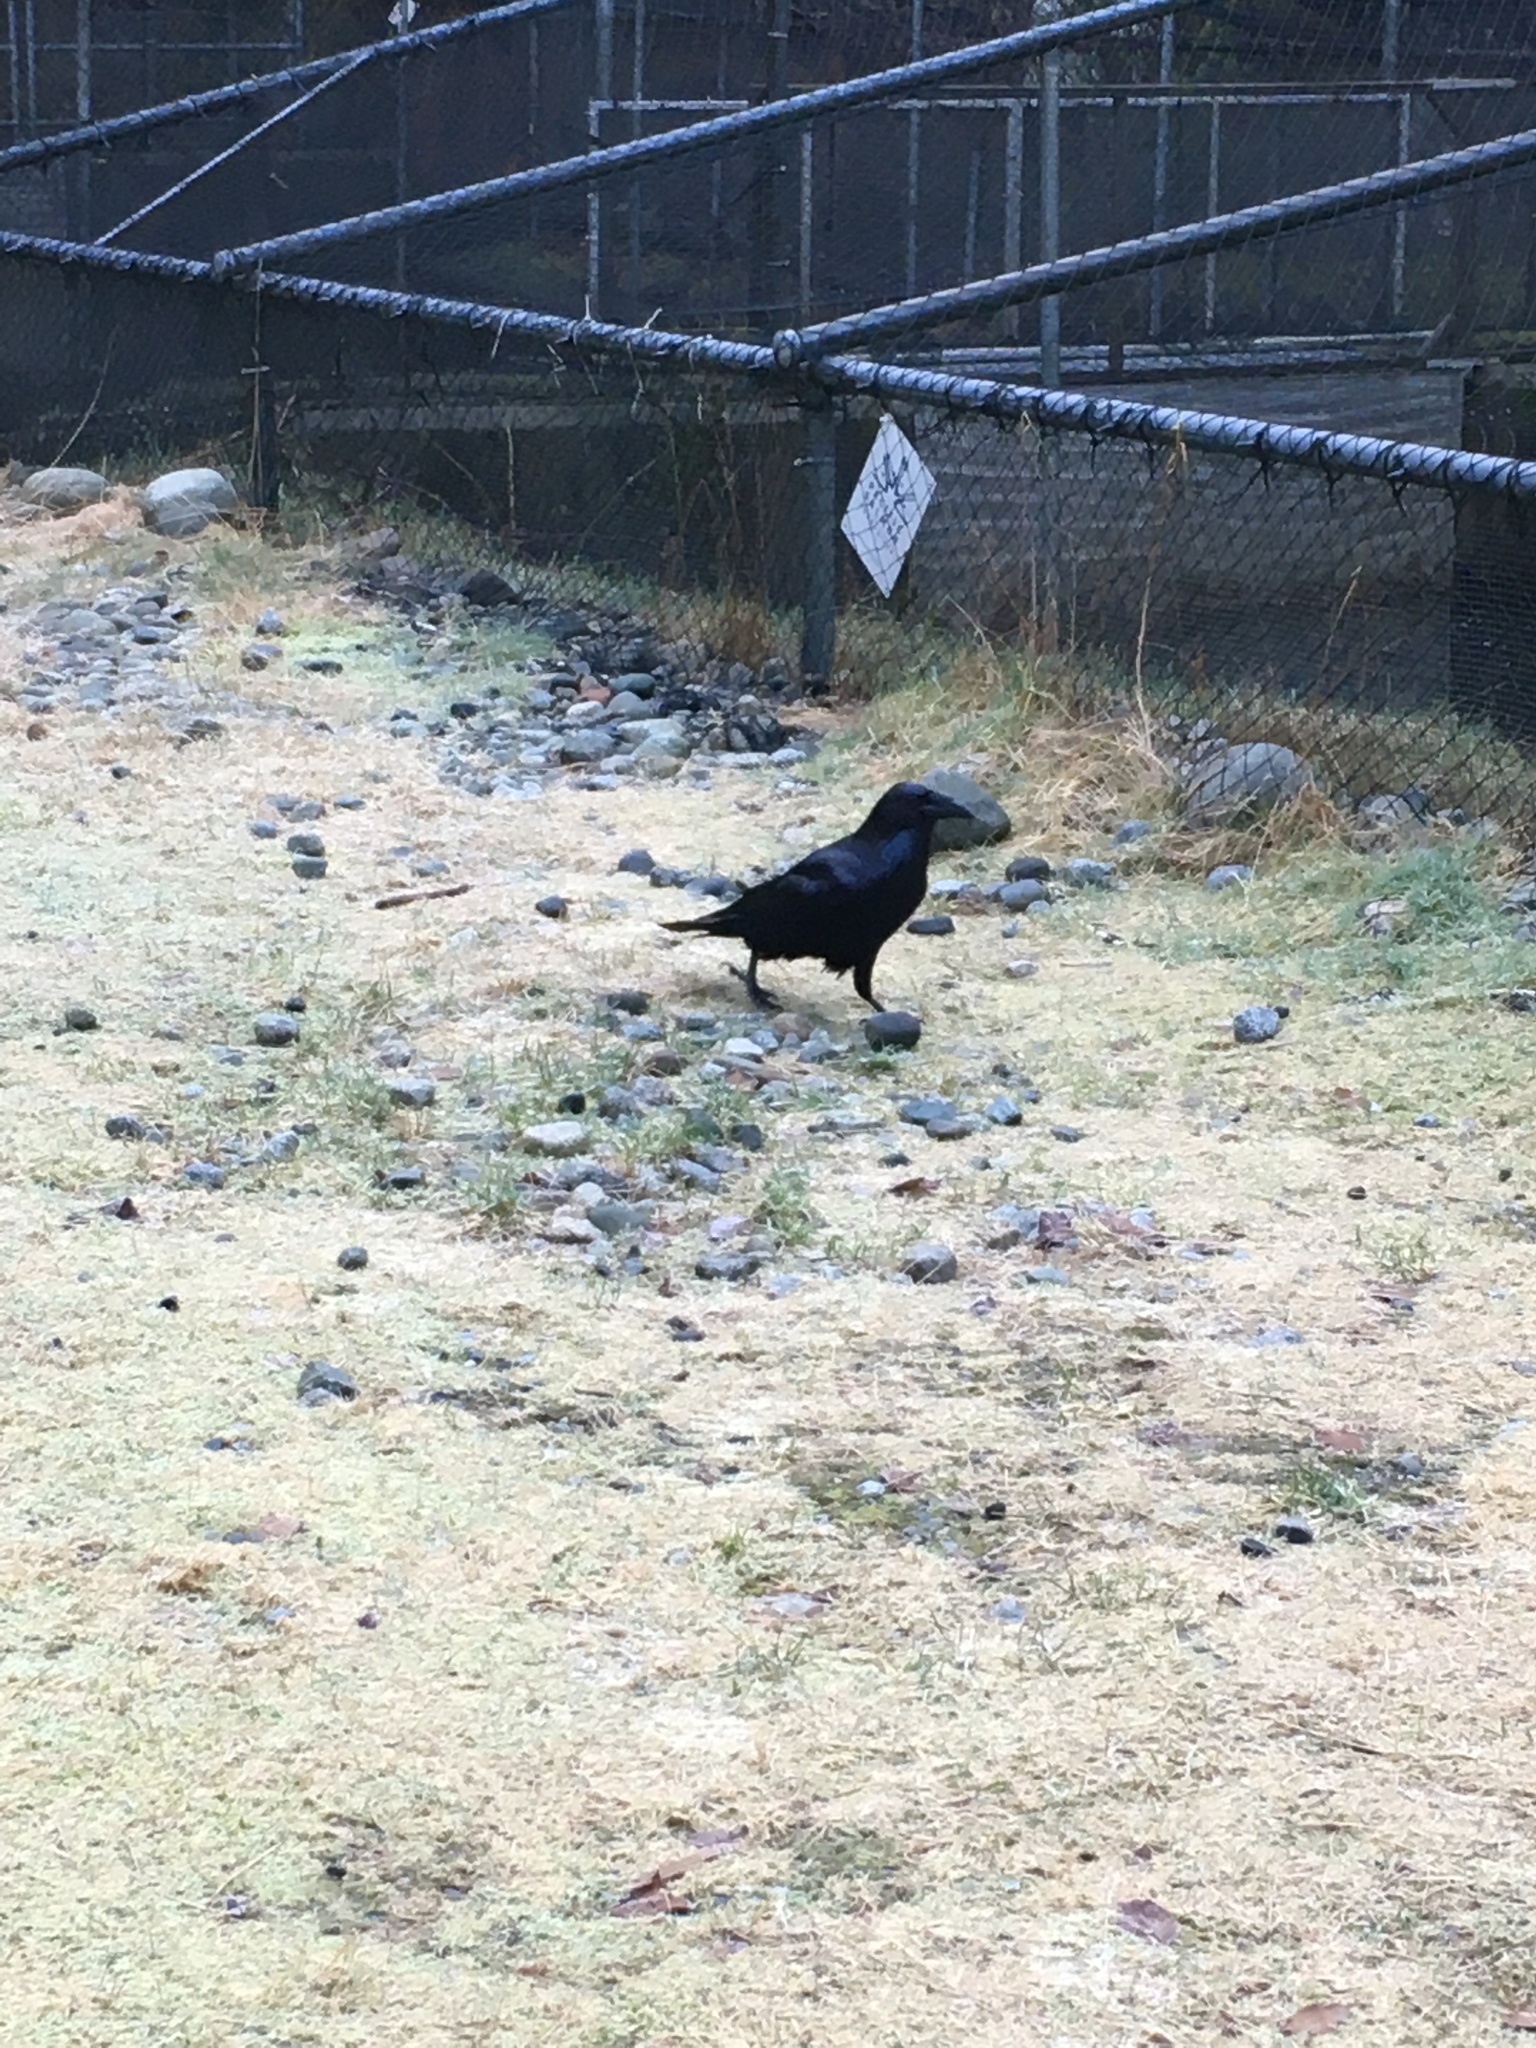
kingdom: Animalia
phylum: Chordata
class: Aves
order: Passeriformes
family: Corvidae
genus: Corvus
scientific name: Corvus corax
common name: Common raven
